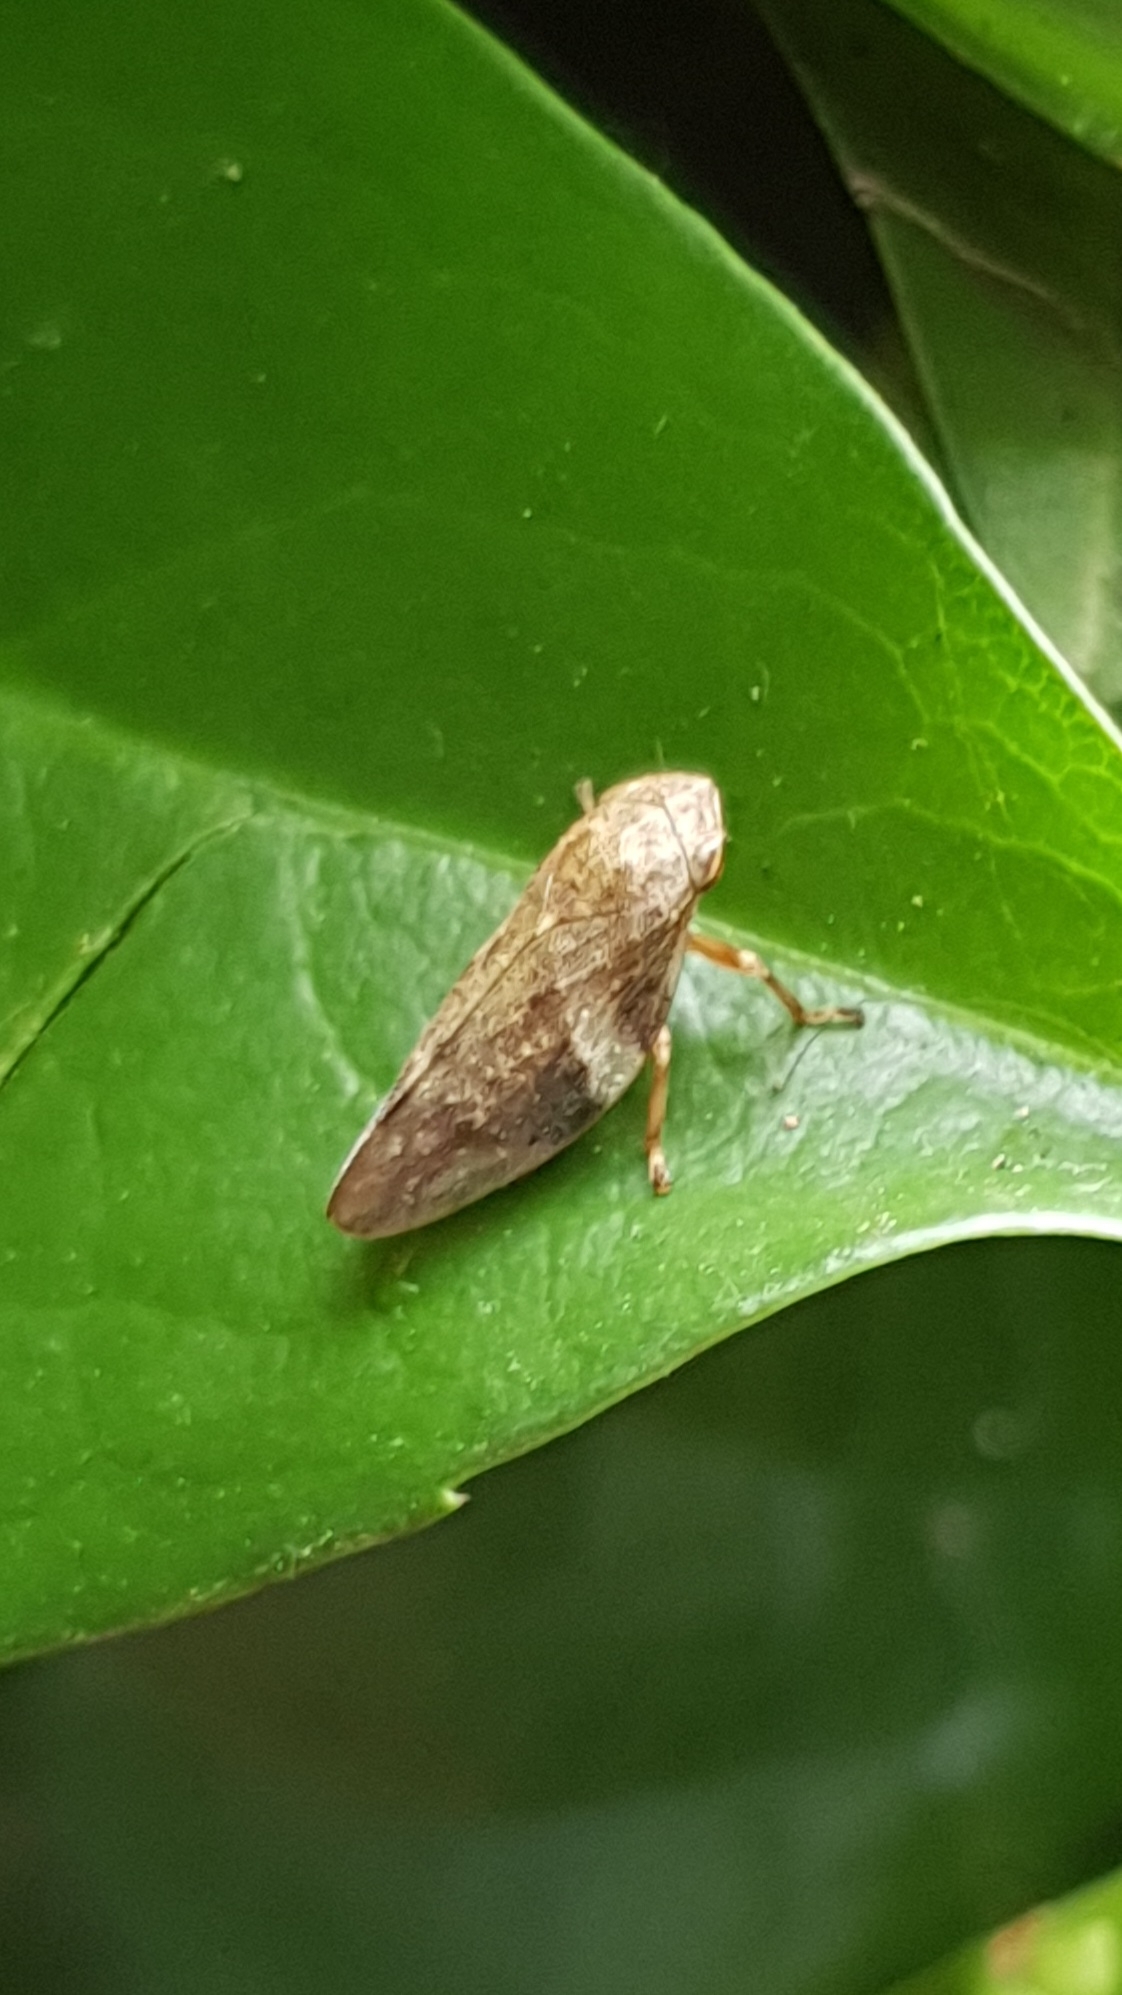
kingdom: Animalia
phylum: Arthropoda
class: Insecta
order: Hemiptera
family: Aphrophoridae
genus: Aphrophora
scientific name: Aphrophora alni
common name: European alder spittlebug
